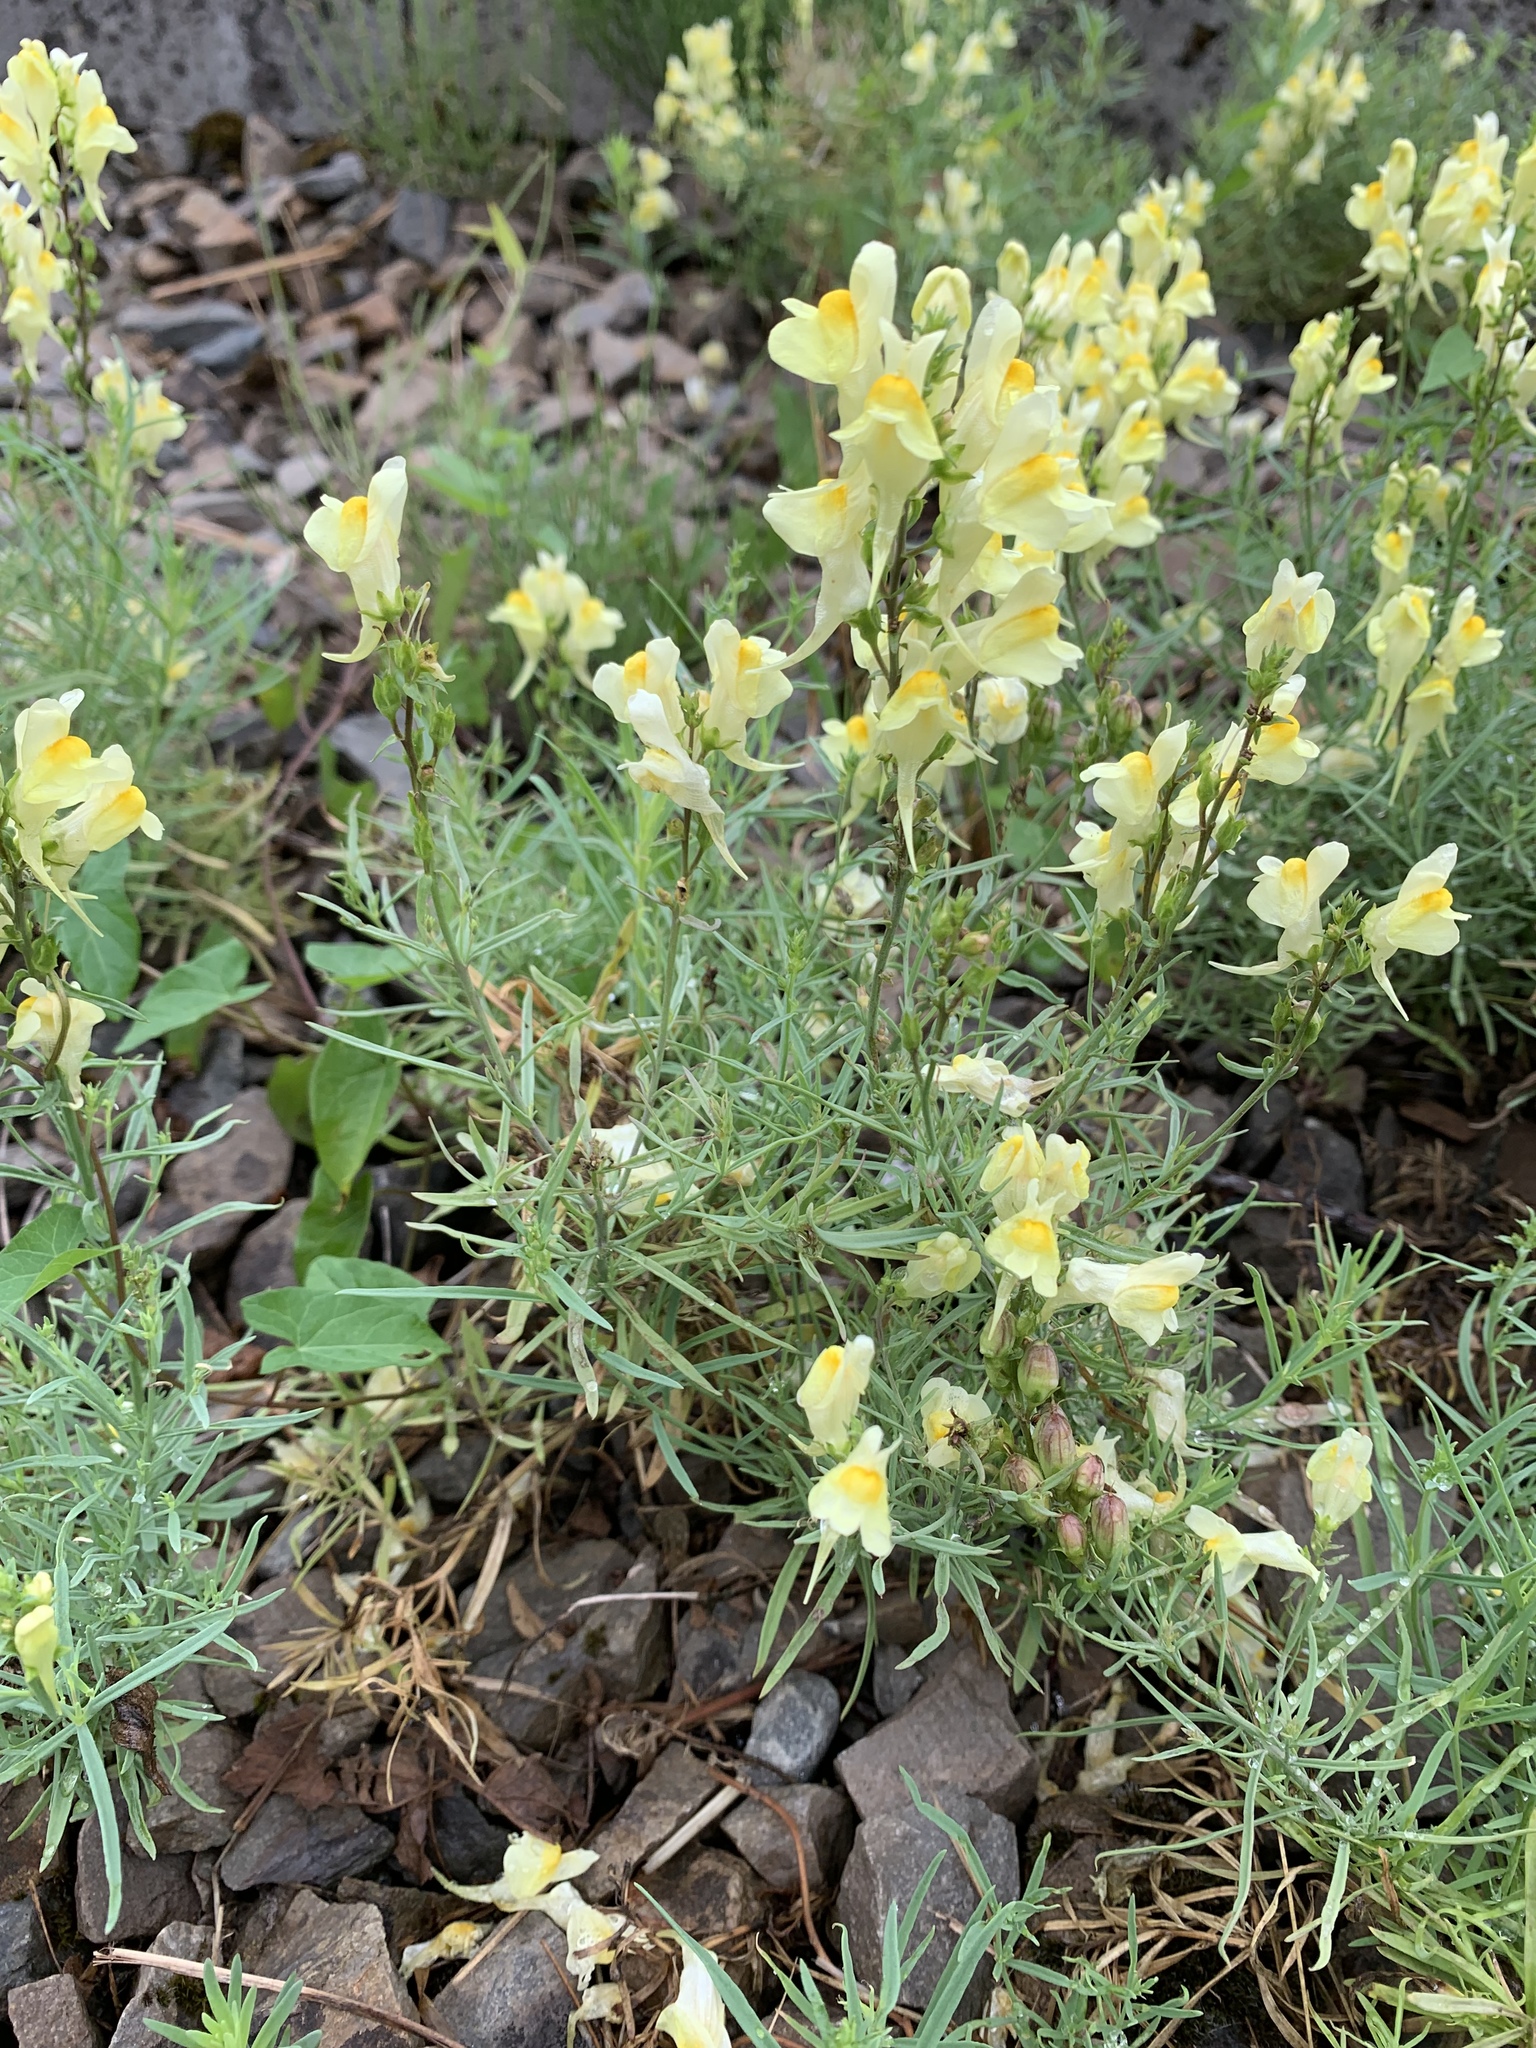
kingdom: Plantae
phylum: Tracheophyta
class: Magnoliopsida
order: Lamiales
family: Plantaginaceae
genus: Linaria
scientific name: Linaria vulgaris
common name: Butter and eggs
